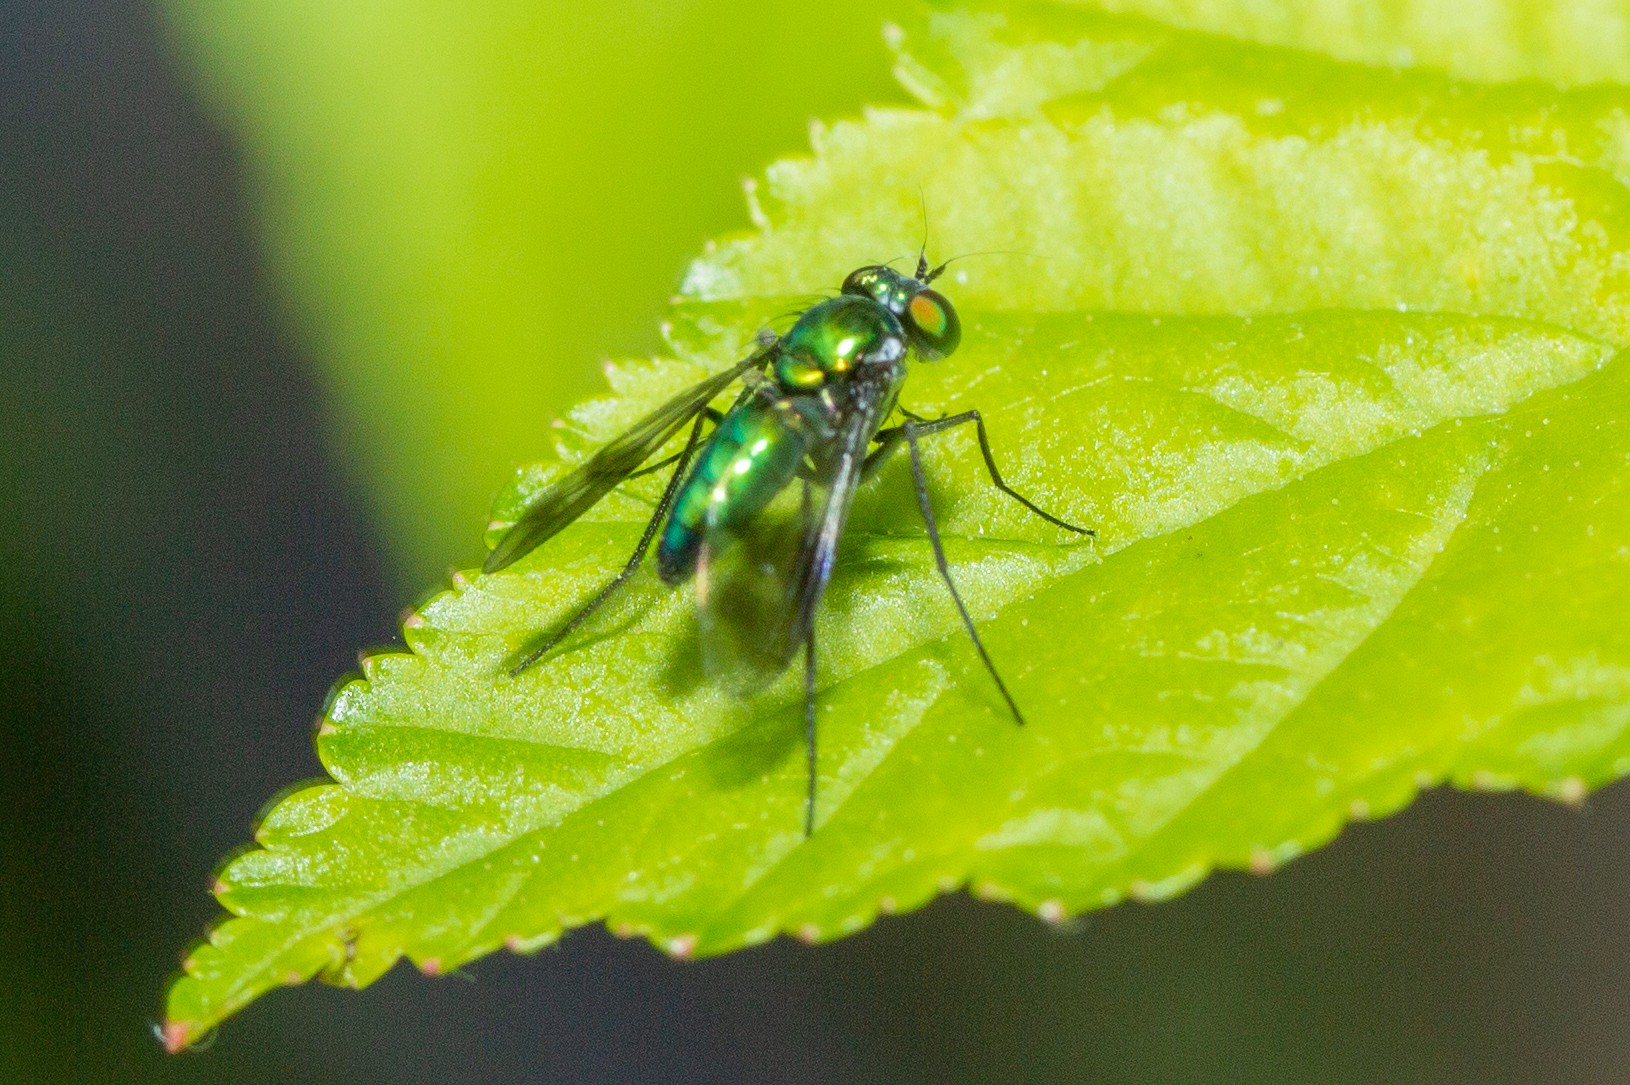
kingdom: Animalia
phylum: Arthropoda
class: Insecta
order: Diptera
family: Dolichopodidae
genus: Condylostylus
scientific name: Condylostylus patibulatus
